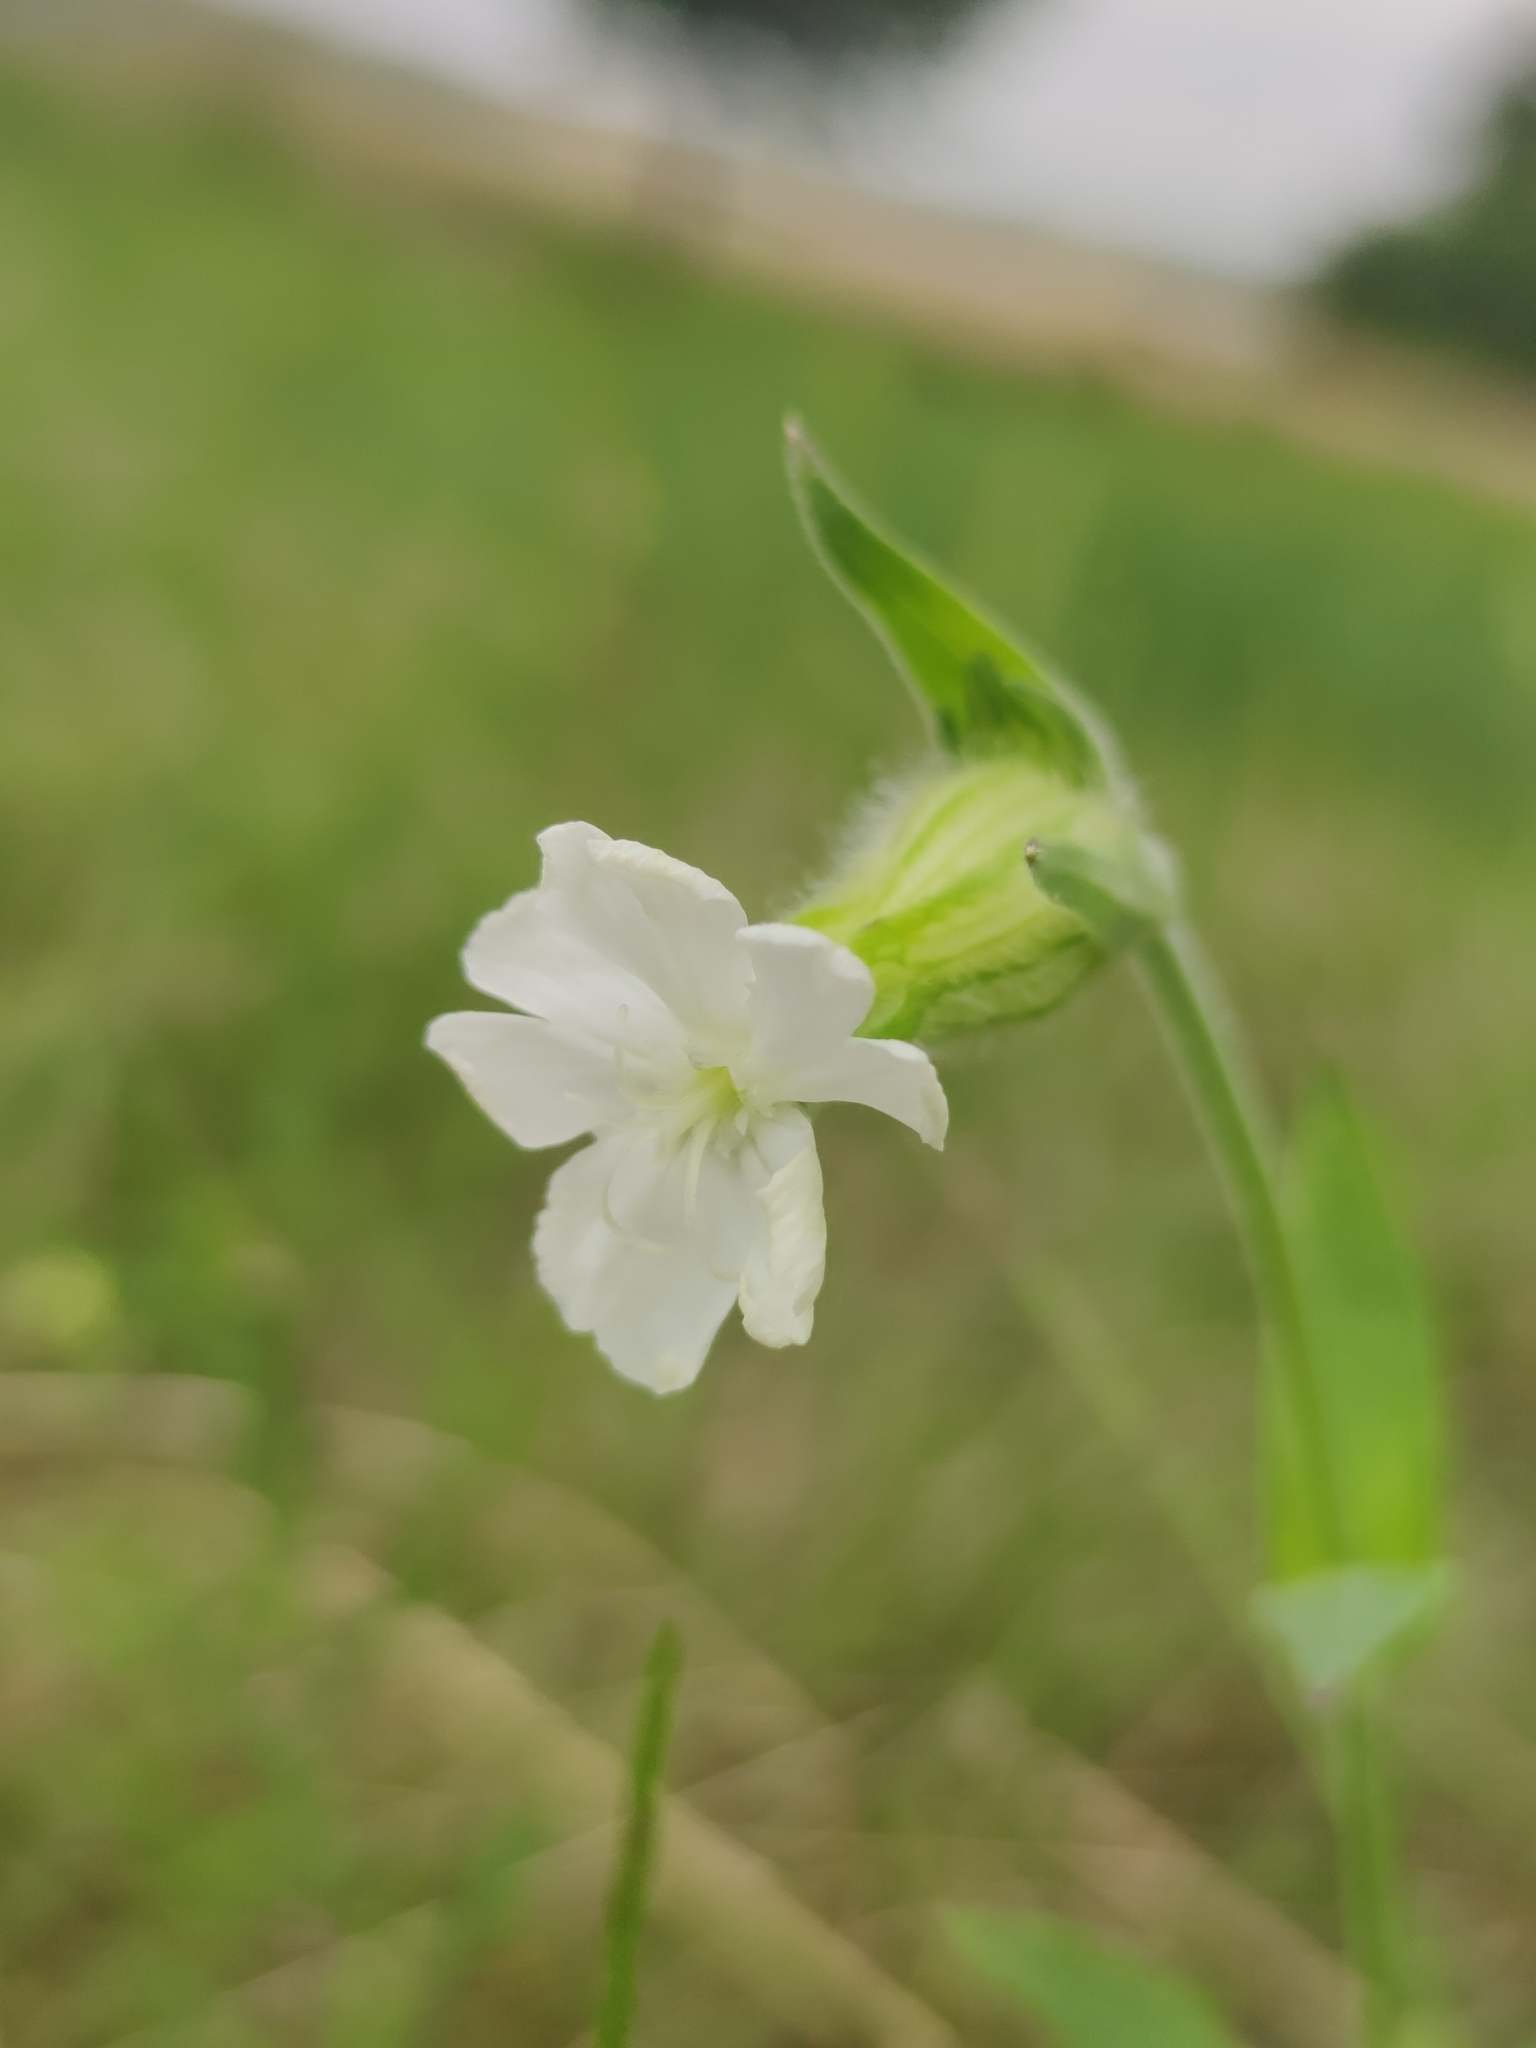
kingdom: Plantae
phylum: Tracheophyta
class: Magnoliopsida
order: Caryophyllales
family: Caryophyllaceae
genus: Silene
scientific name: Silene latifolia
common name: White campion
